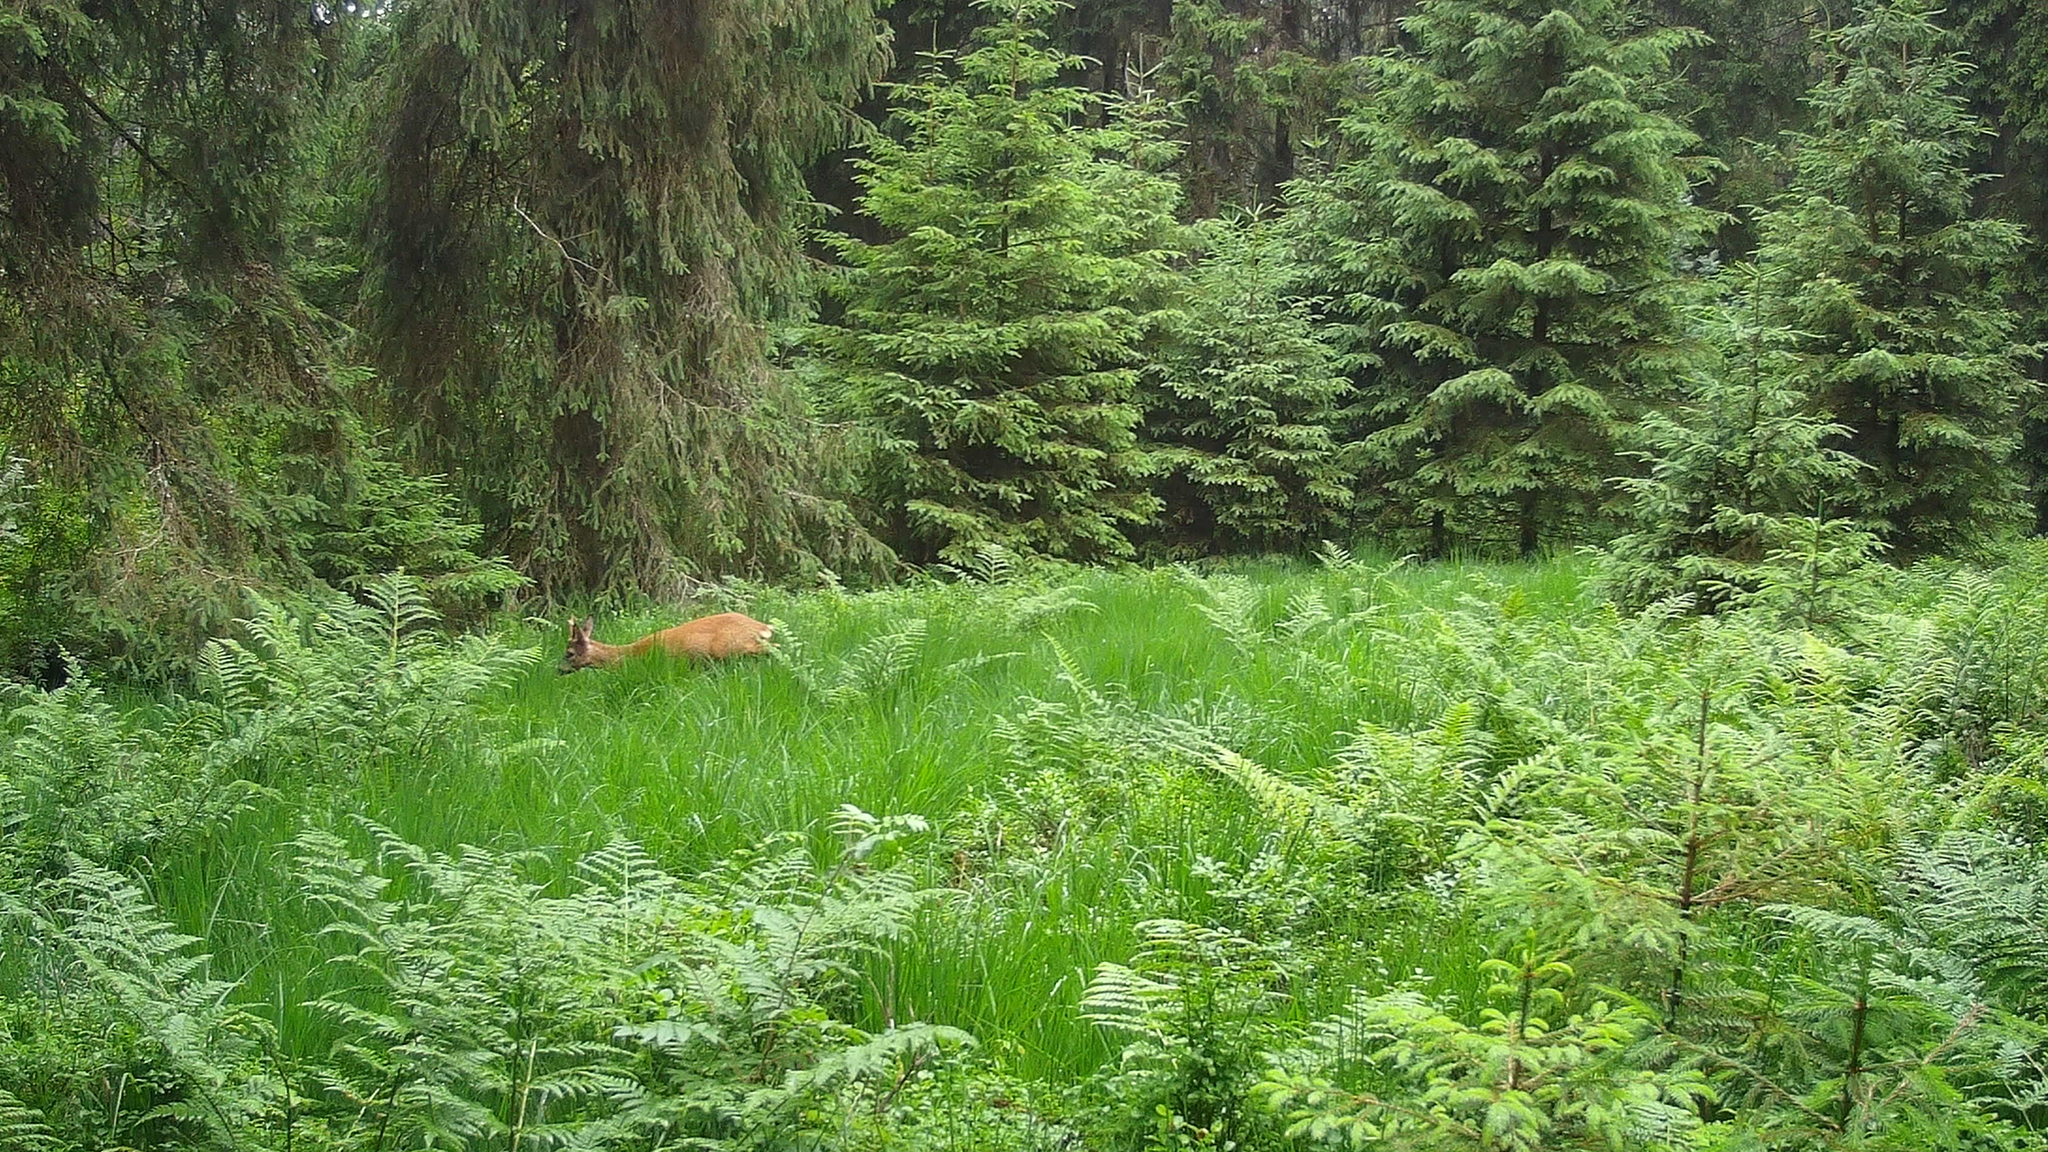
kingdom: Animalia
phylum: Chordata
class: Mammalia
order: Artiodactyla
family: Cervidae
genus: Capreolus
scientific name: Capreolus capreolus
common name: Western roe deer
